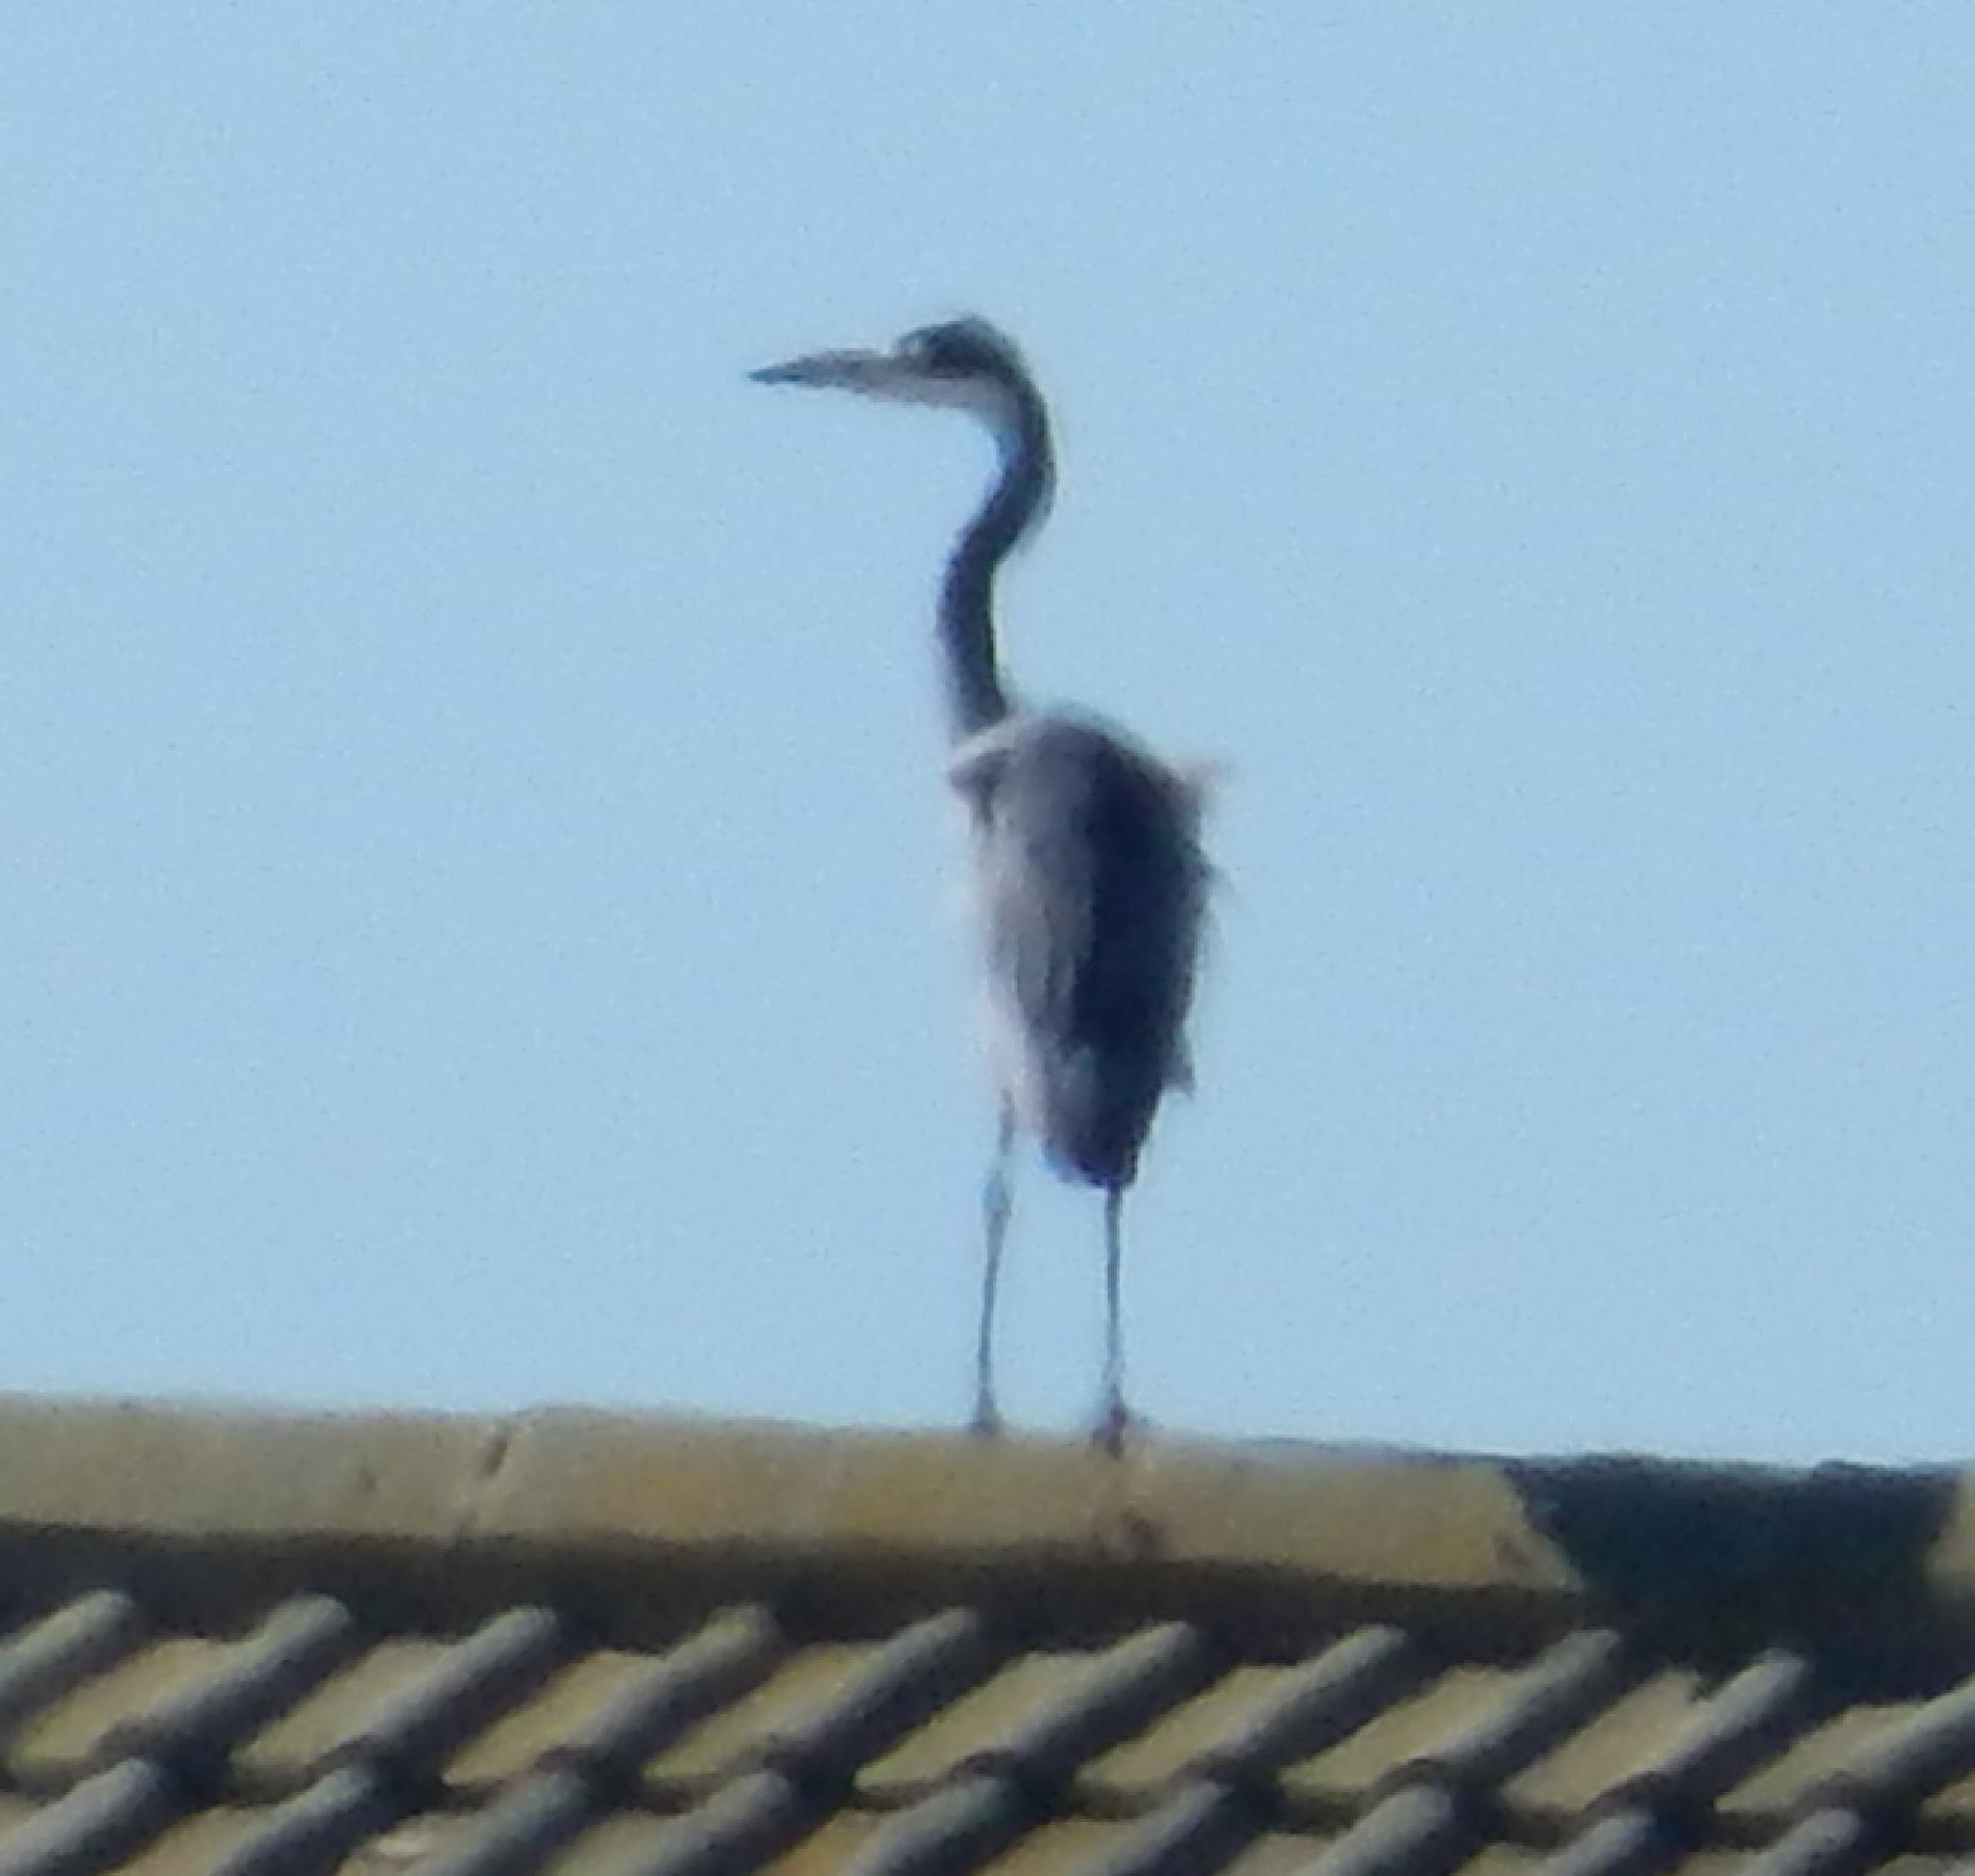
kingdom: Animalia
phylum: Chordata
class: Aves
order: Pelecaniformes
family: Ardeidae
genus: Ardea
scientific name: Ardea melanocephala
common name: Black-headed heron
